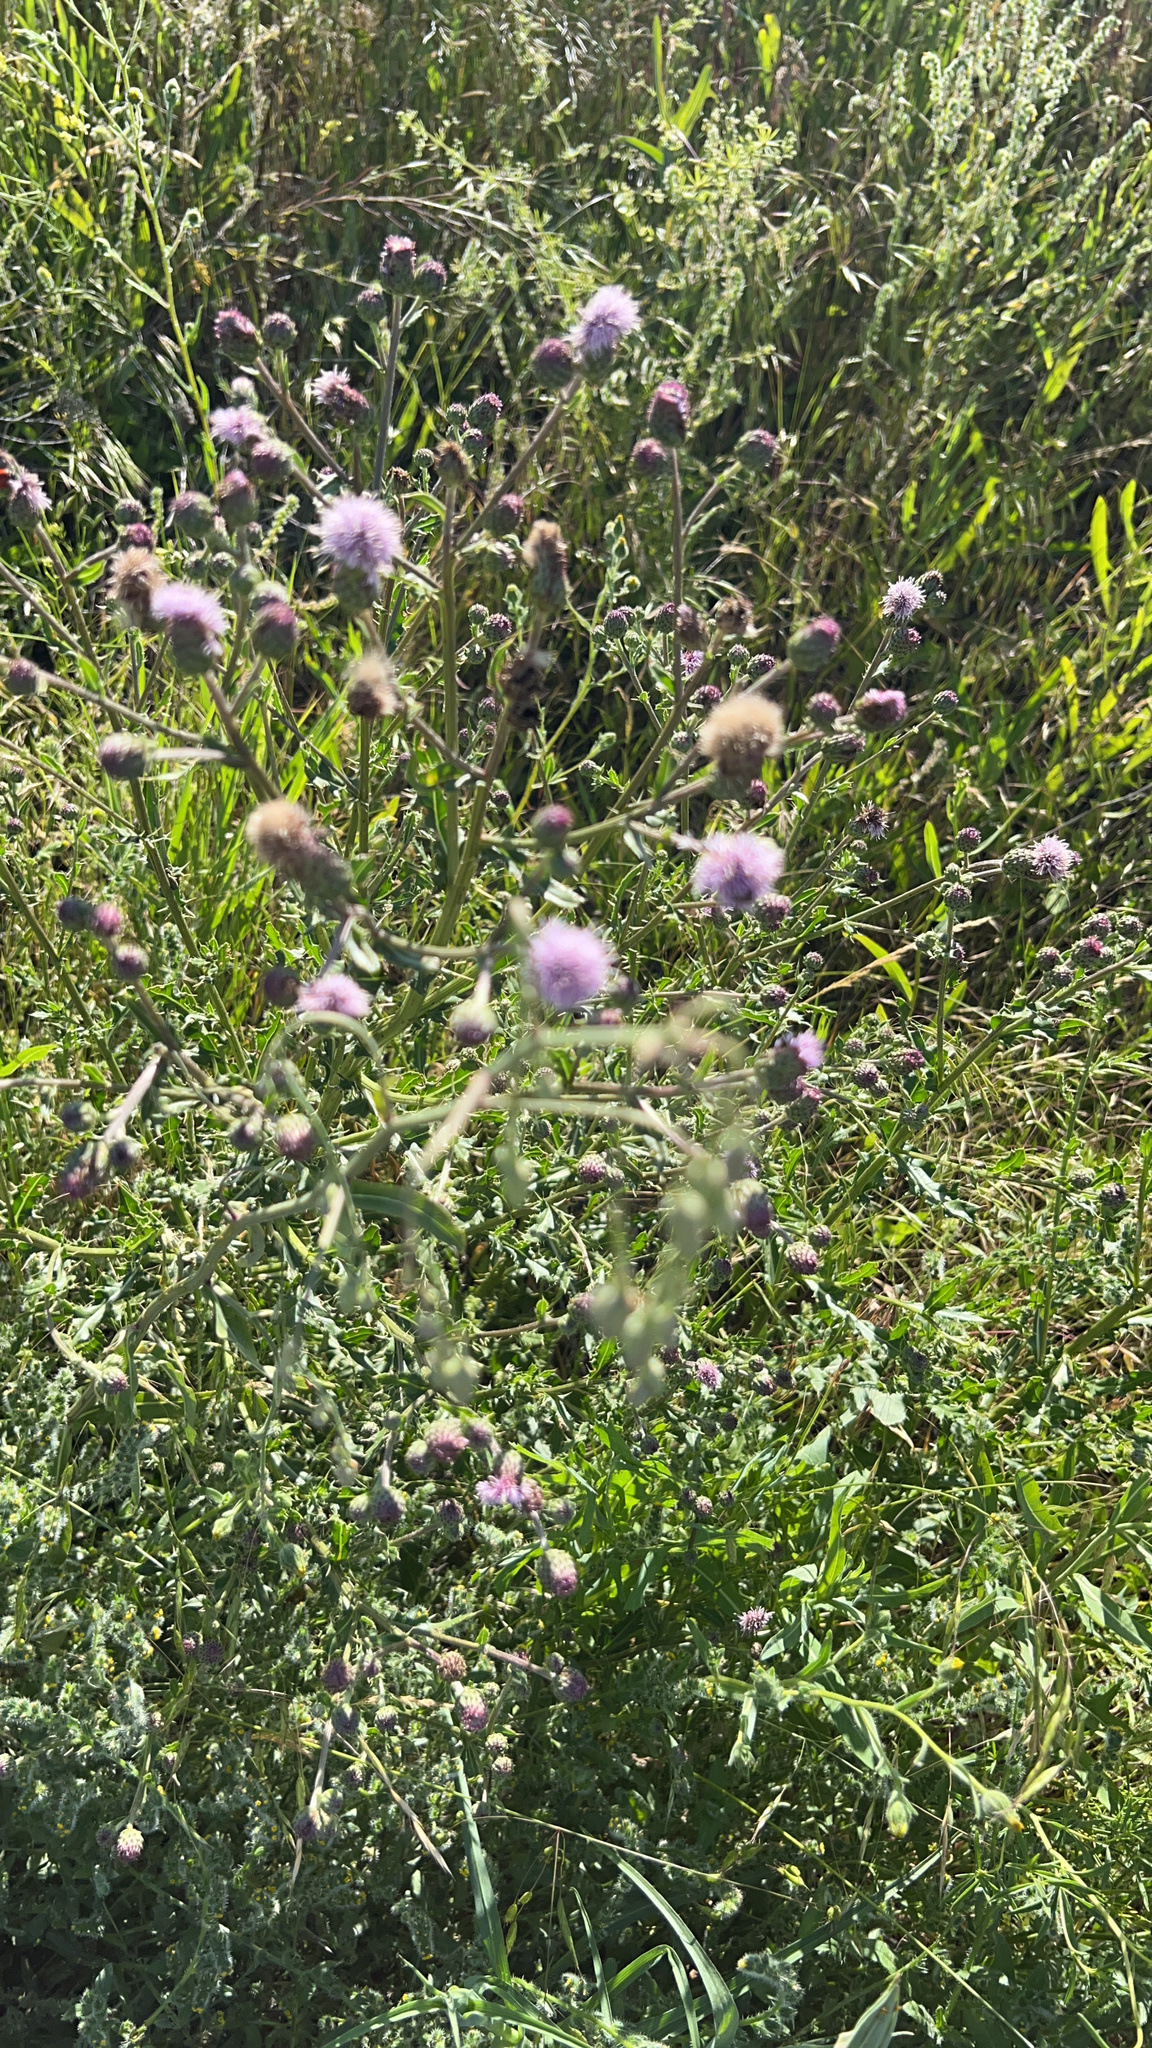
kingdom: Plantae
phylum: Tracheophyta
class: Magnoliopsida
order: Asterales
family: Asteraceae
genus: Cirsium
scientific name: Cirsium arvense
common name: Creeping thistle
